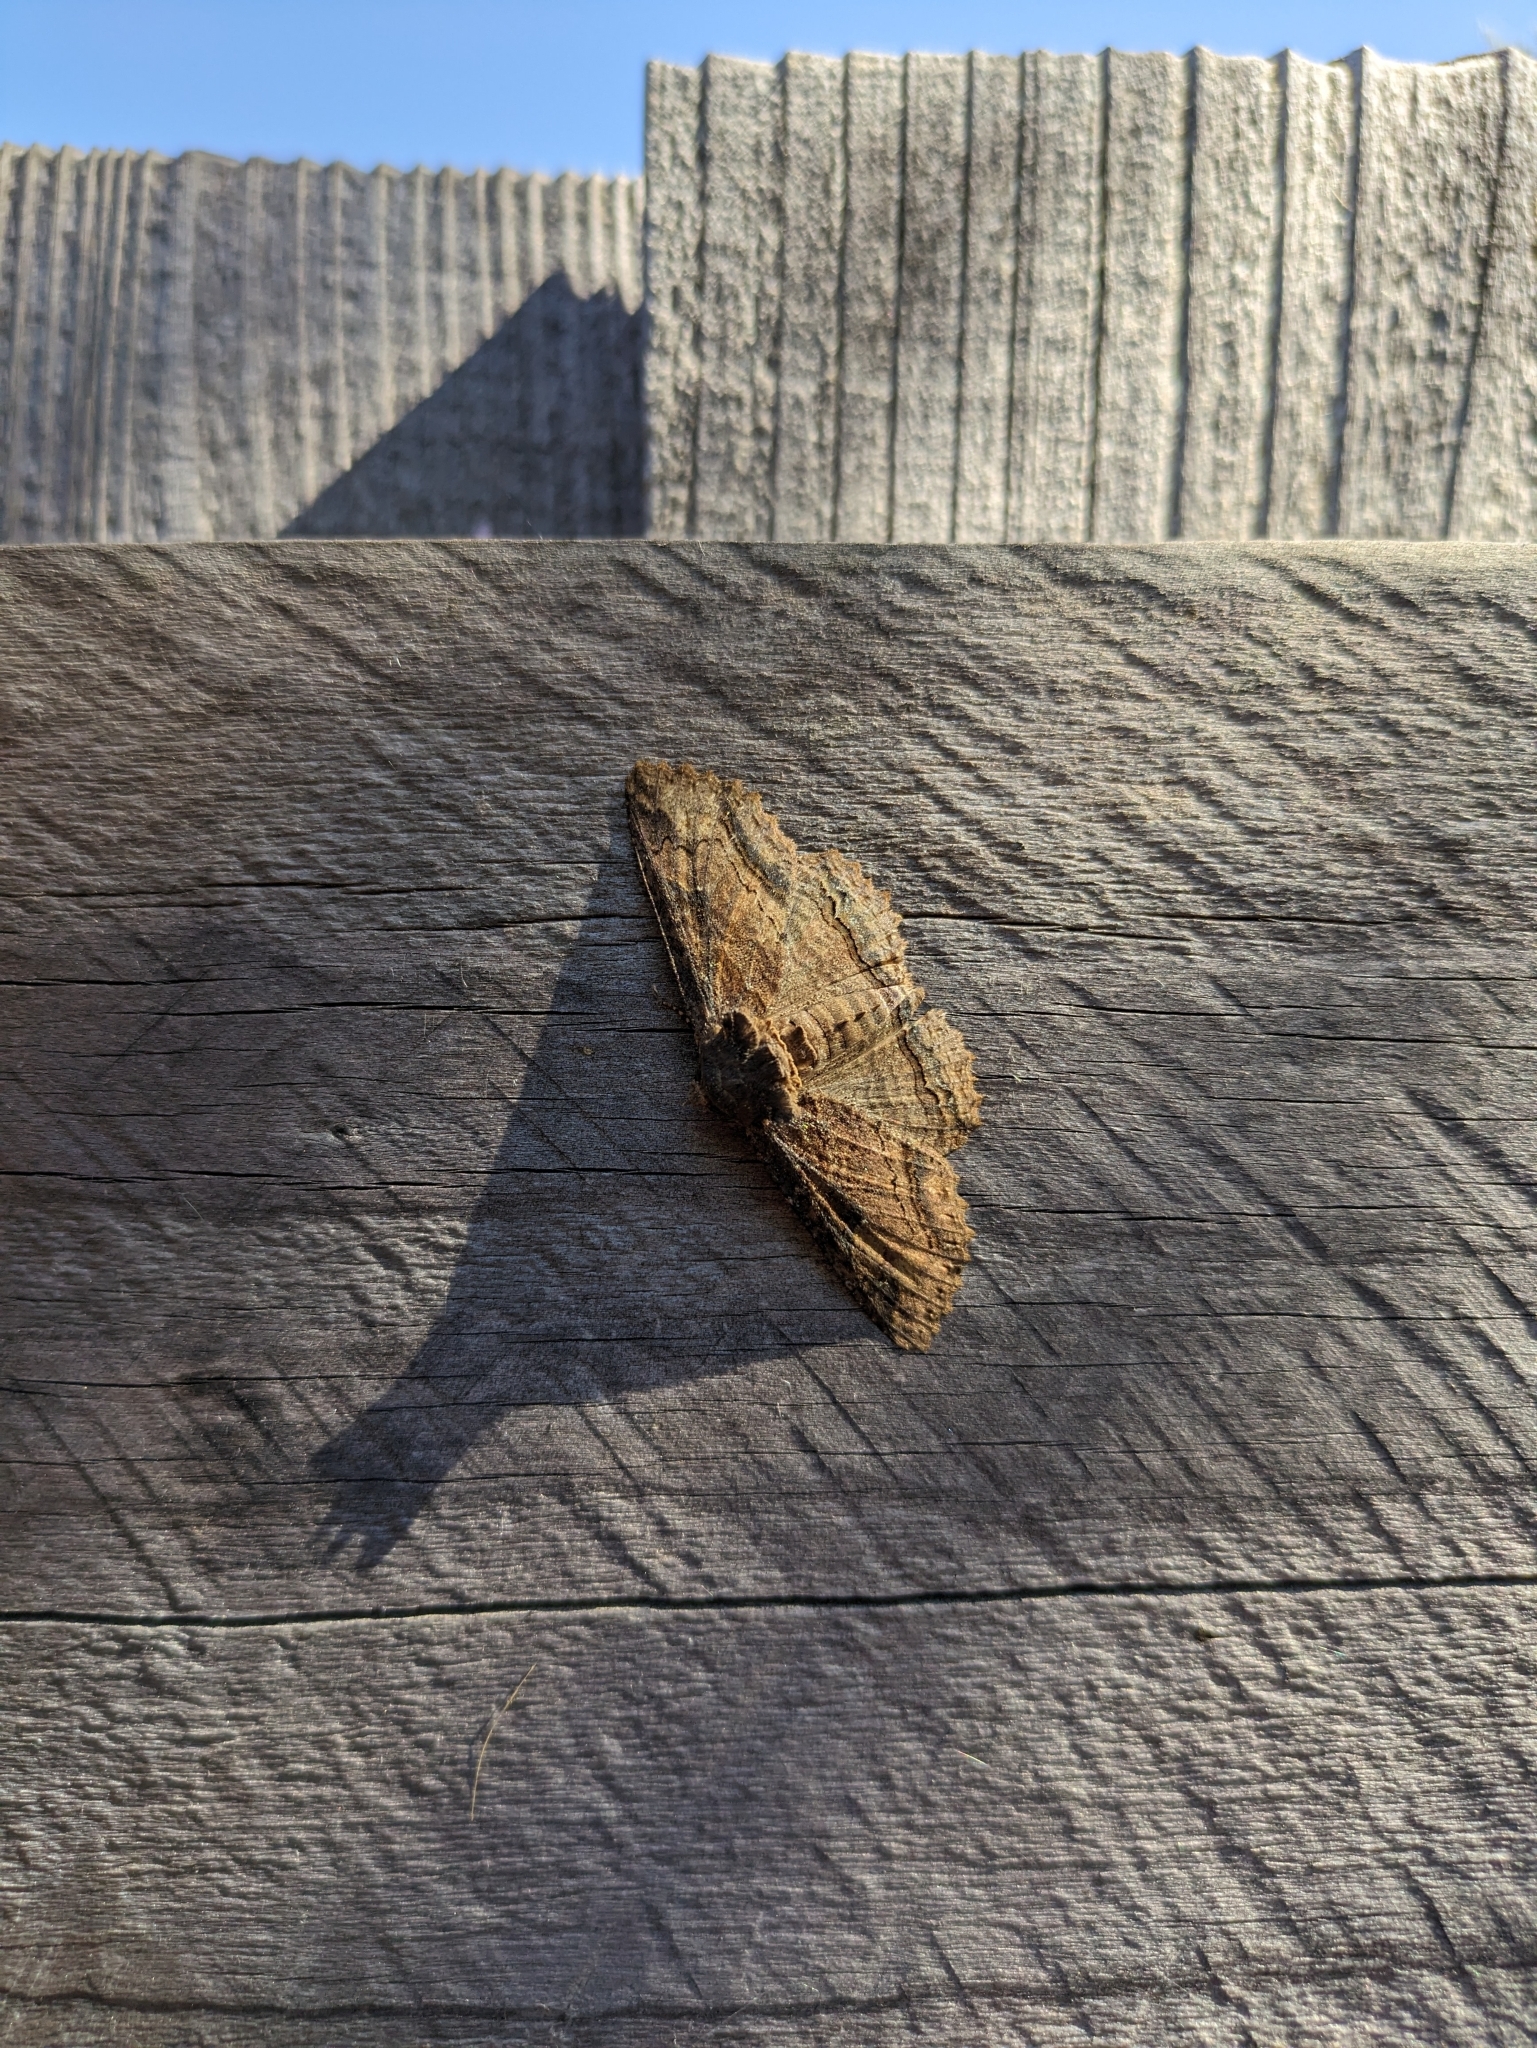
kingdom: Animalia
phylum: Arthropoda
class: Insecta
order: Lepidoptera
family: Erebidae
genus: Zale
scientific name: Zale lunata
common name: Lunate zale moth
